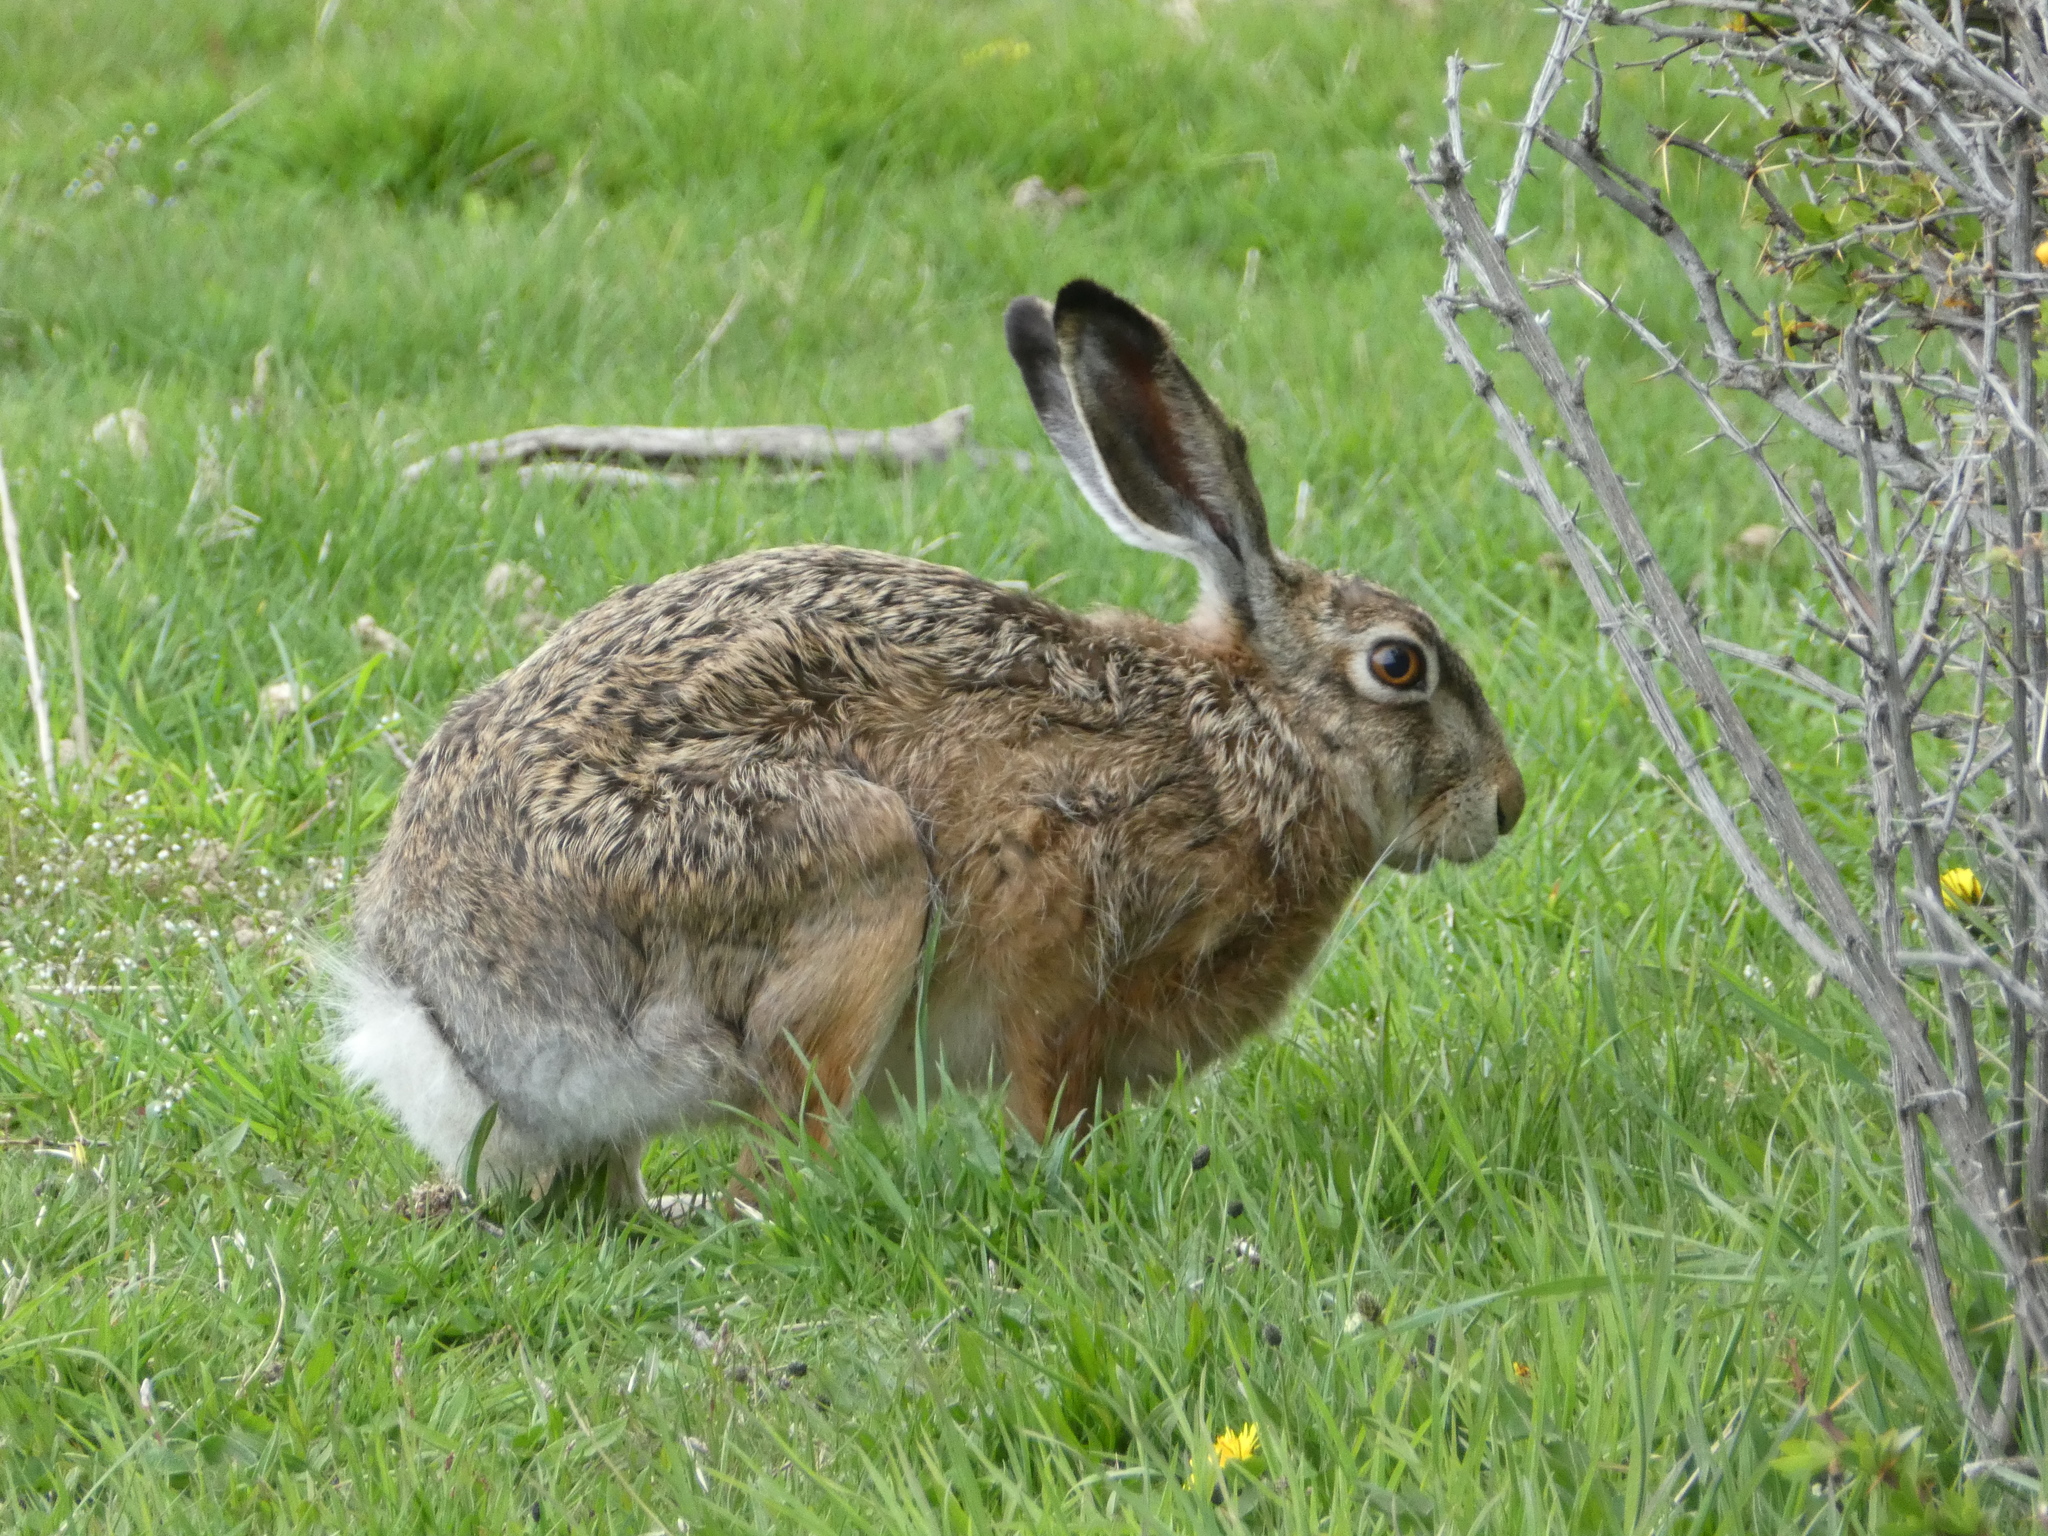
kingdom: Animalia
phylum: Chordata
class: Mammalia
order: Lagomorpha
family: Leporidae
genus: Lepus
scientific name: Lepus europaeus
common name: European hare
